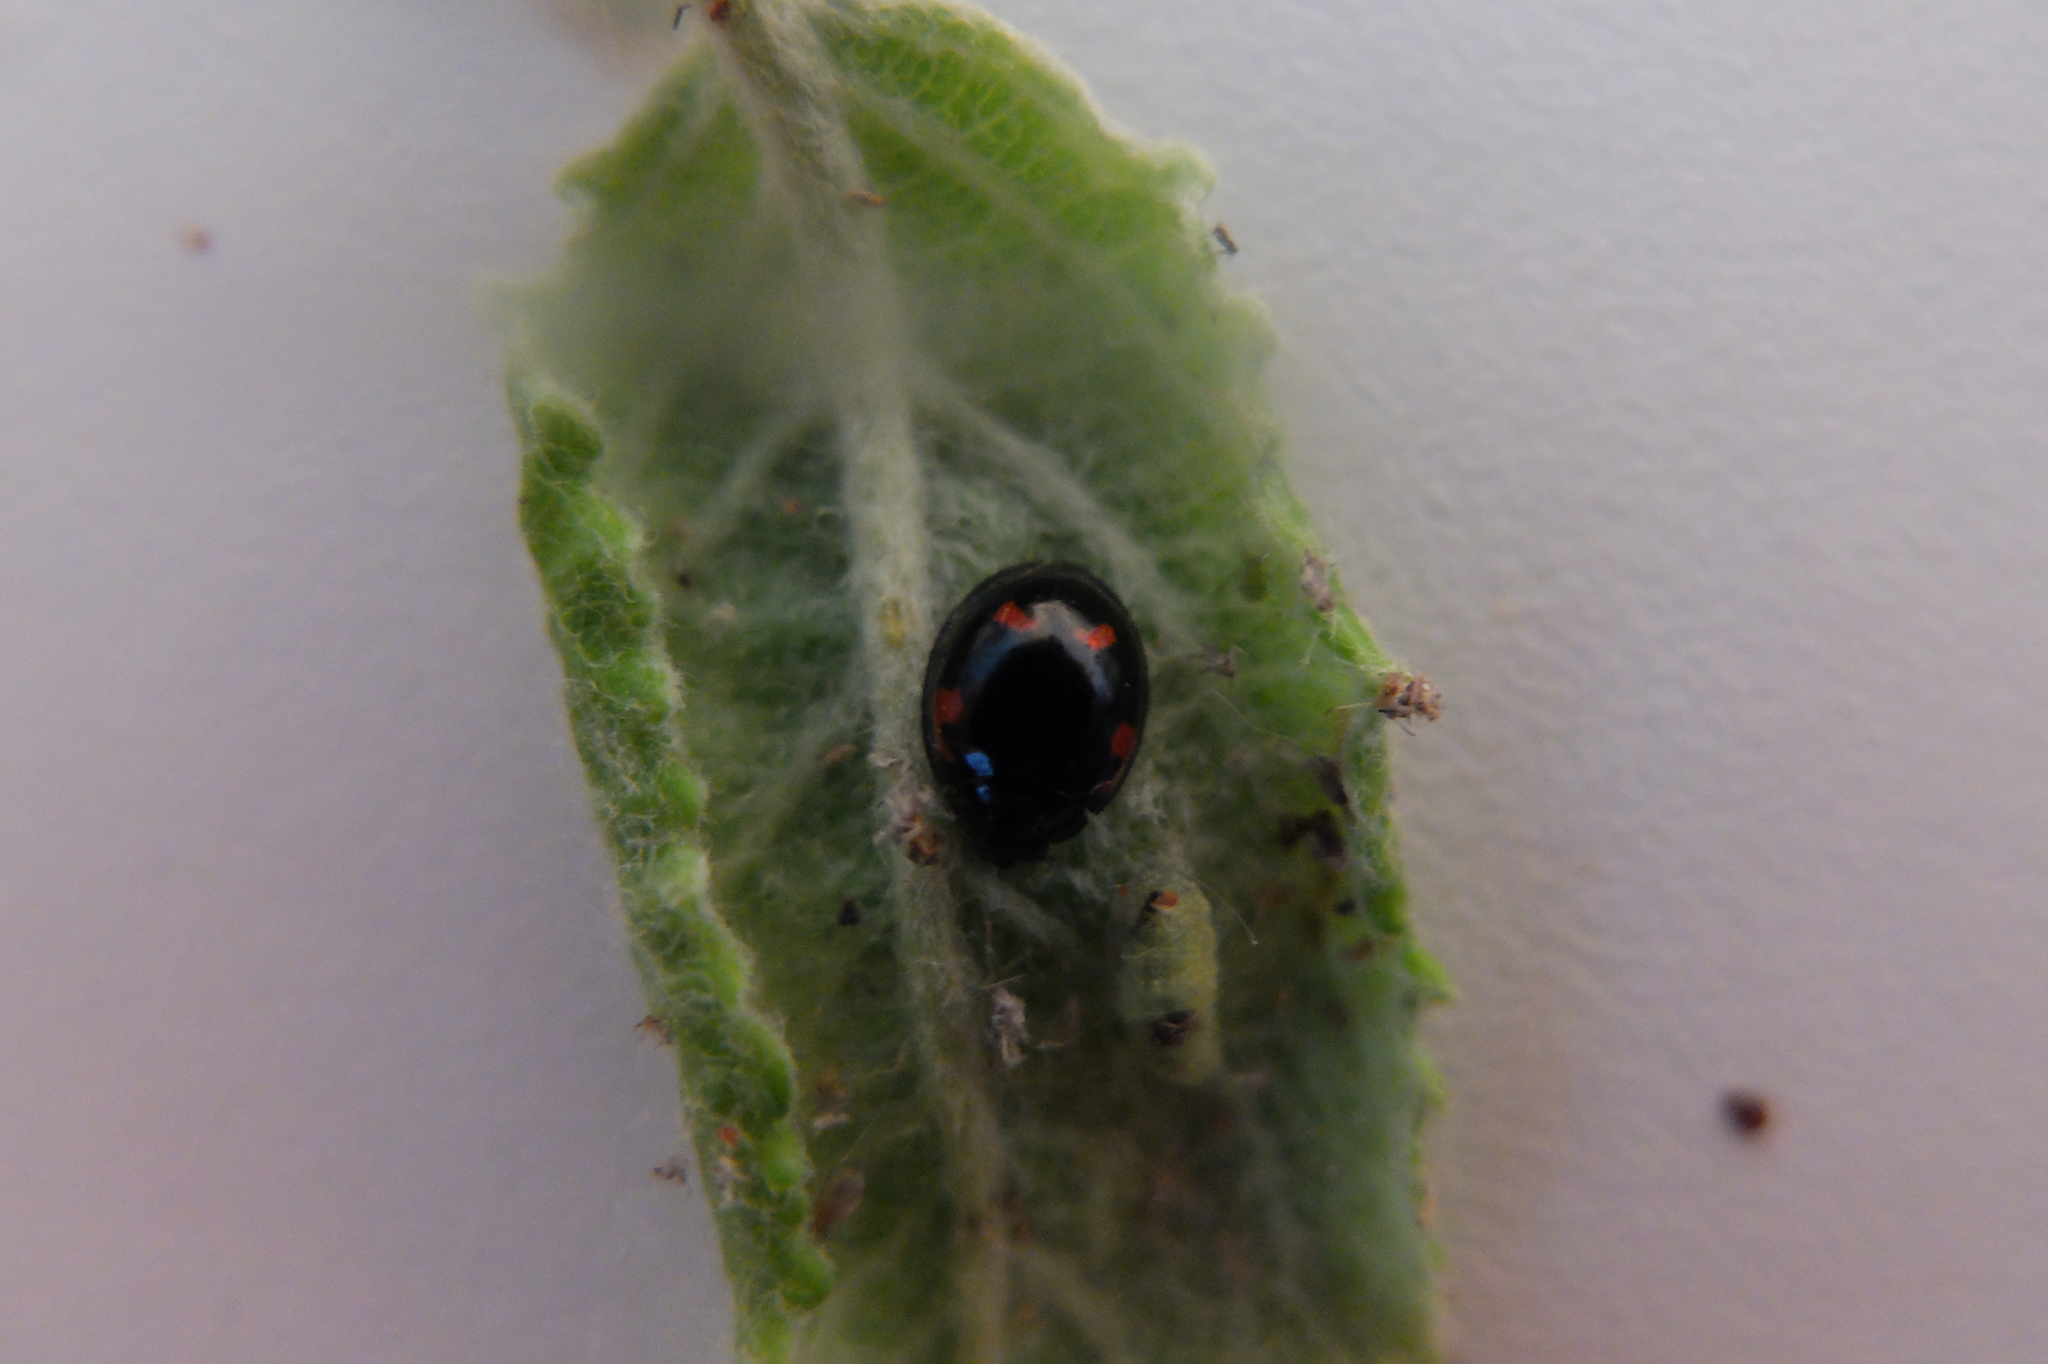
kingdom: Animalia
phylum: Arthropoda
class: Insecta
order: Coleoptera
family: Coccinellidae
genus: Brumus
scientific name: Brumus quadripustulatus
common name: Ladybird beetle
